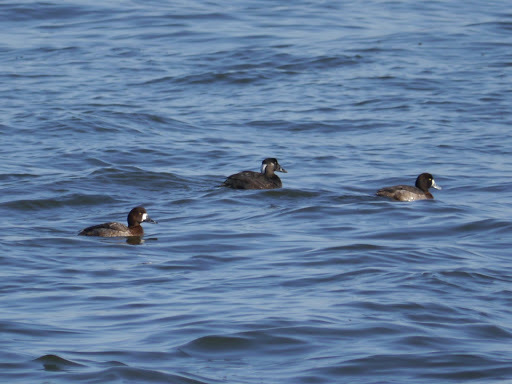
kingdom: Animalia
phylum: Chordata
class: Aves
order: Anseriformes
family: Anatidae
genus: Aythya
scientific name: Aythya marila
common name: Greater scaup
